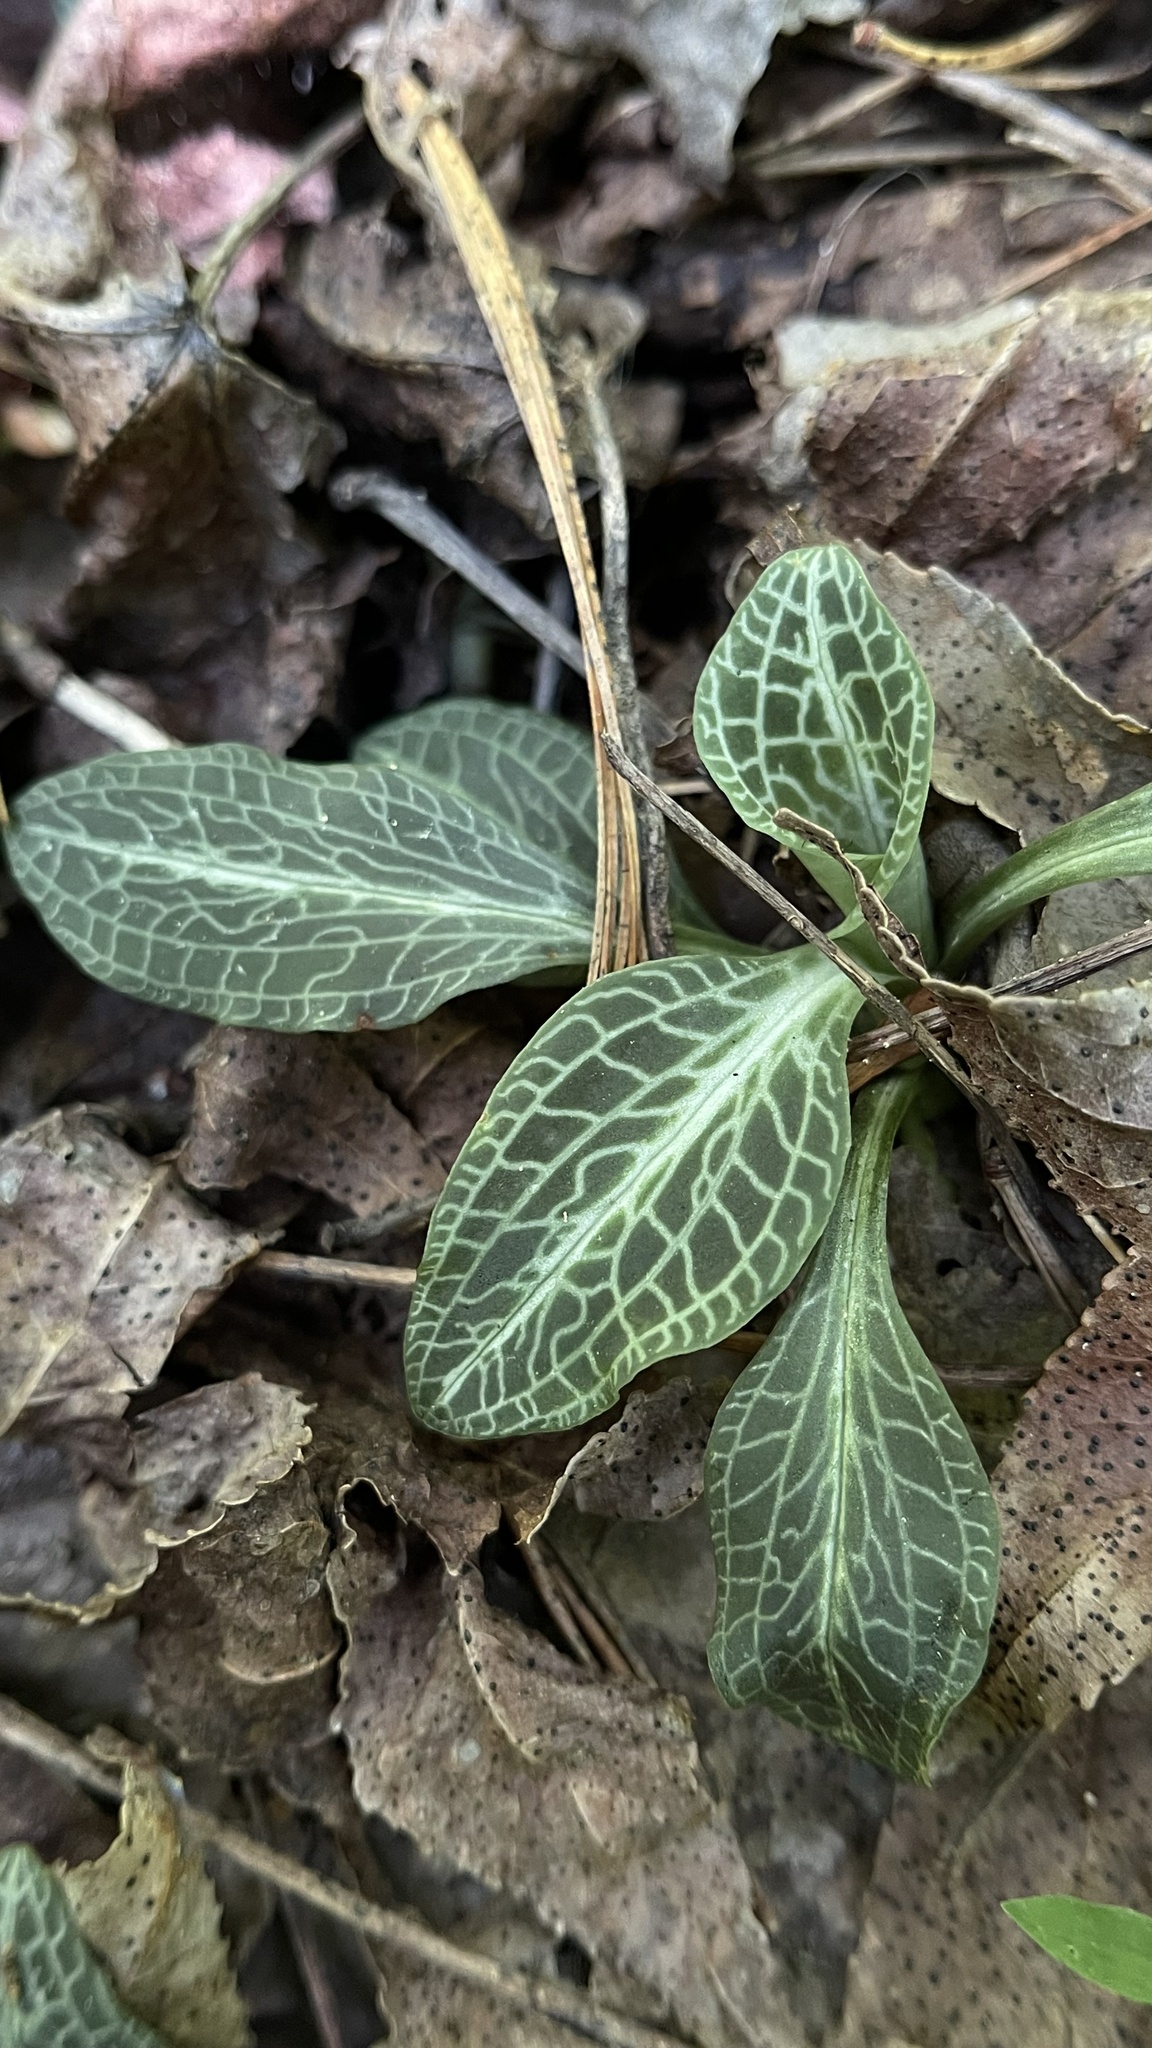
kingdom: Plantae
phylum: Tracheophyta
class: Liliopsida
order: Asparagales
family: Orchidaceae
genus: Goodyera
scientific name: Goodyera pubescens
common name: Downy rattlesnake-plantain
